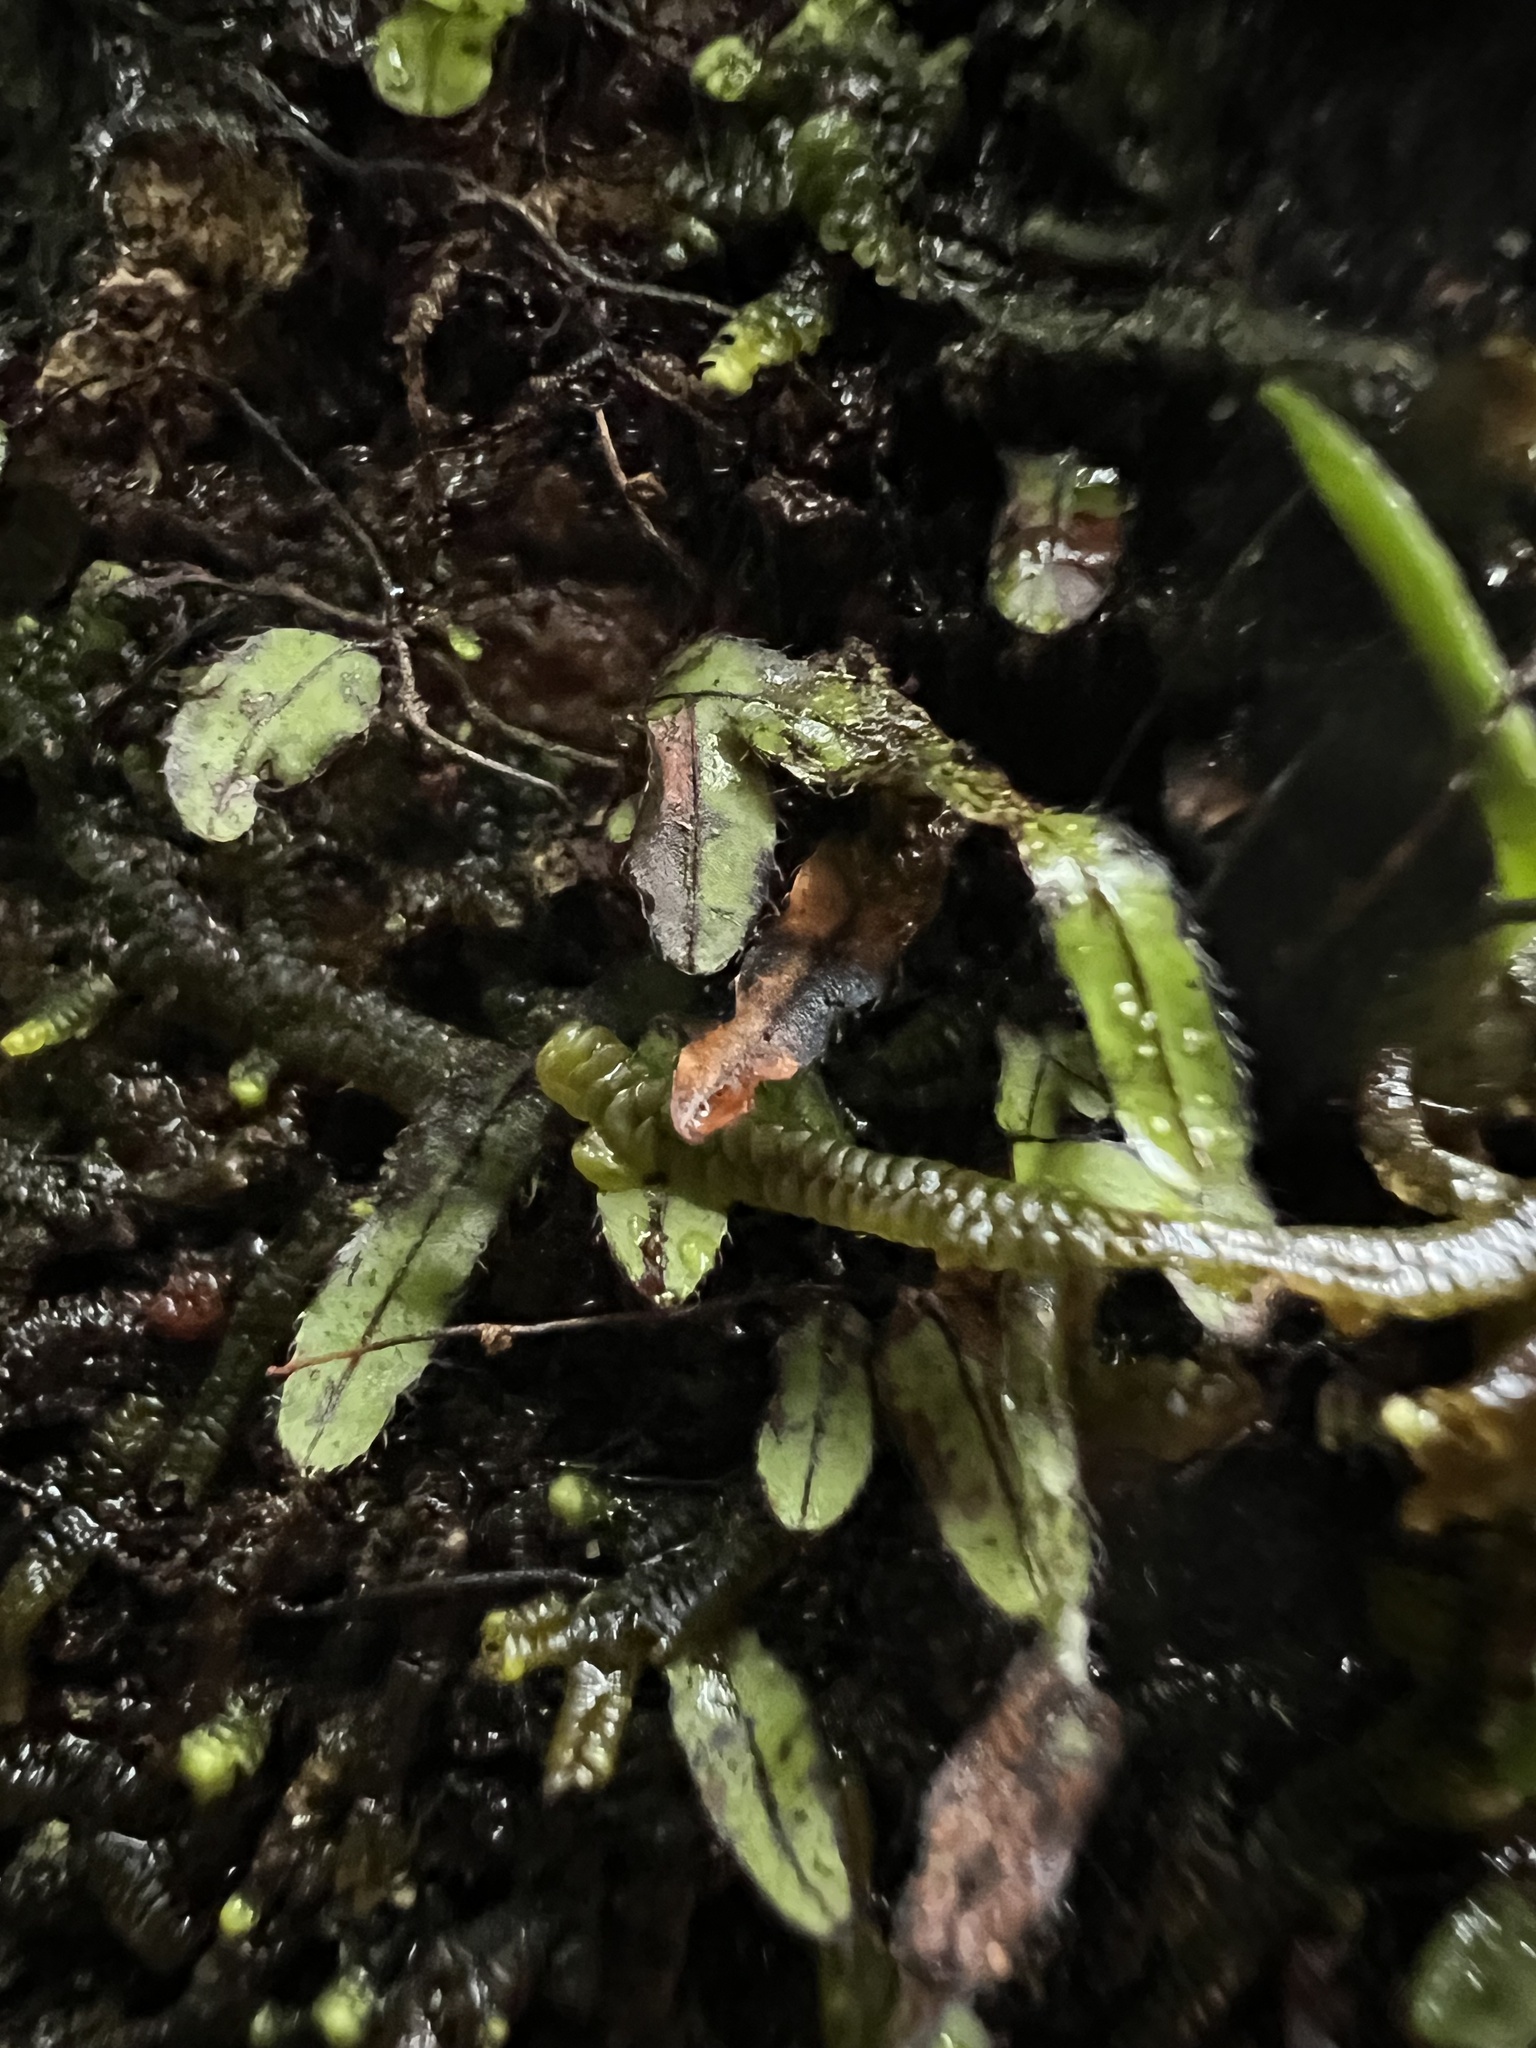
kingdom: Plantae
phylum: Tracheophyta
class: Polypodiopsida
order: Hymenophyllales
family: Hymenophyllaceae
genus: Hymenophyllum
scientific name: Hymenophyllum armstrongii
